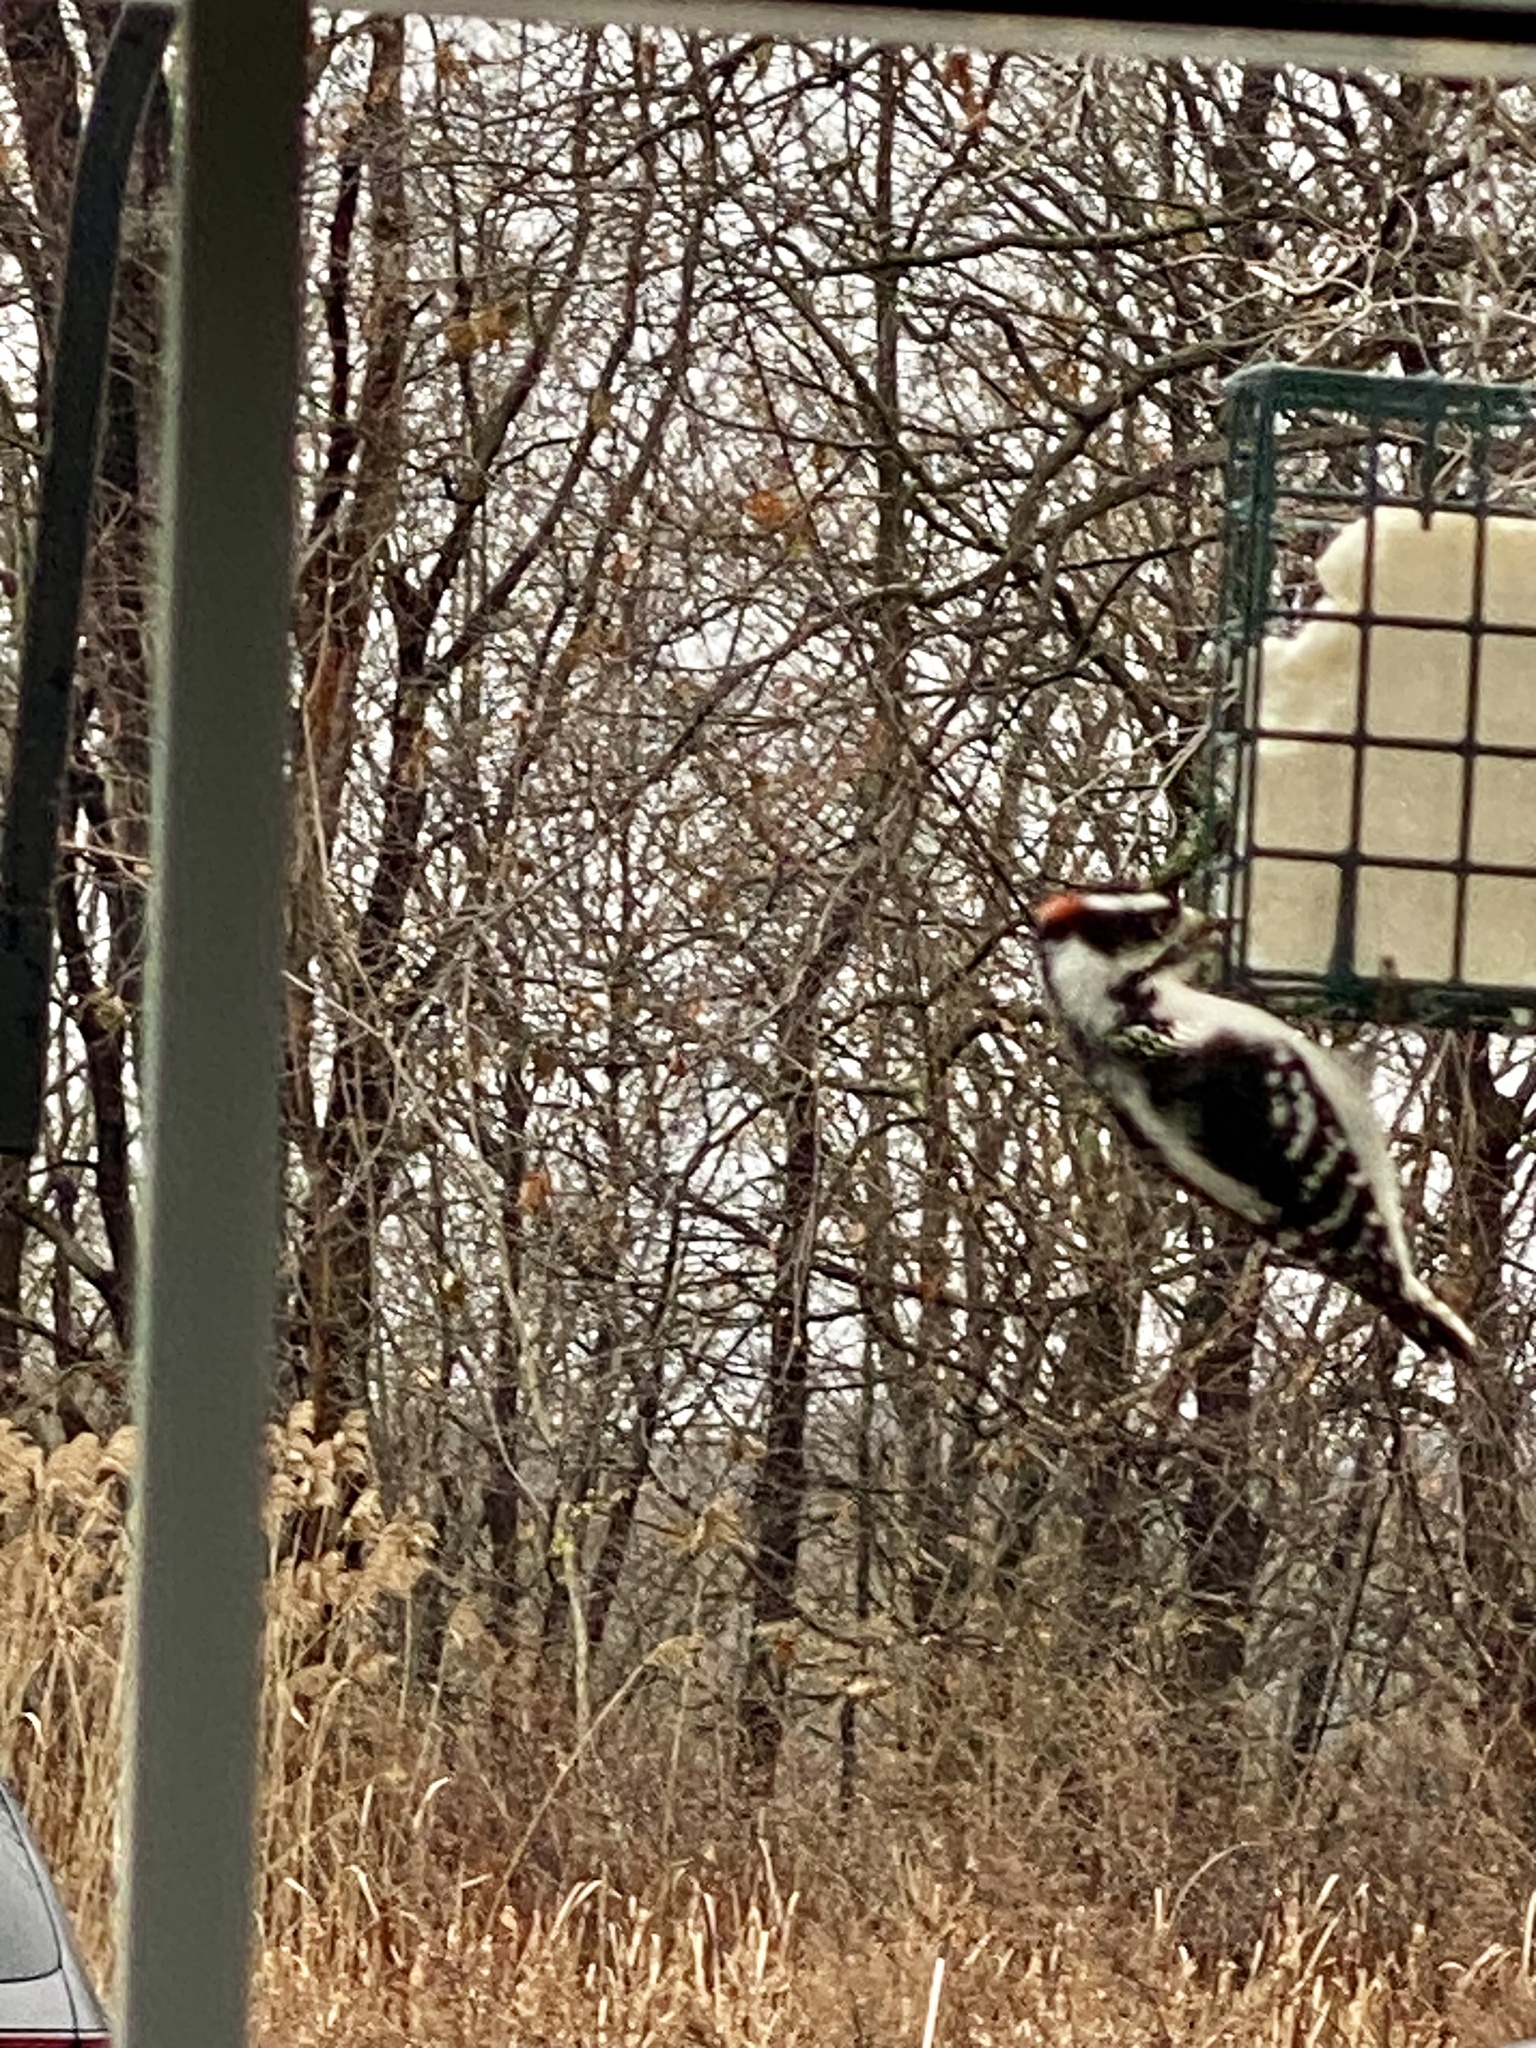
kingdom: Animalia
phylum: Chordata
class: Aves
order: Piciformes
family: Picidae
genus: Dryobates
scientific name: Dryobates pubescens
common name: Downy woodpecker
